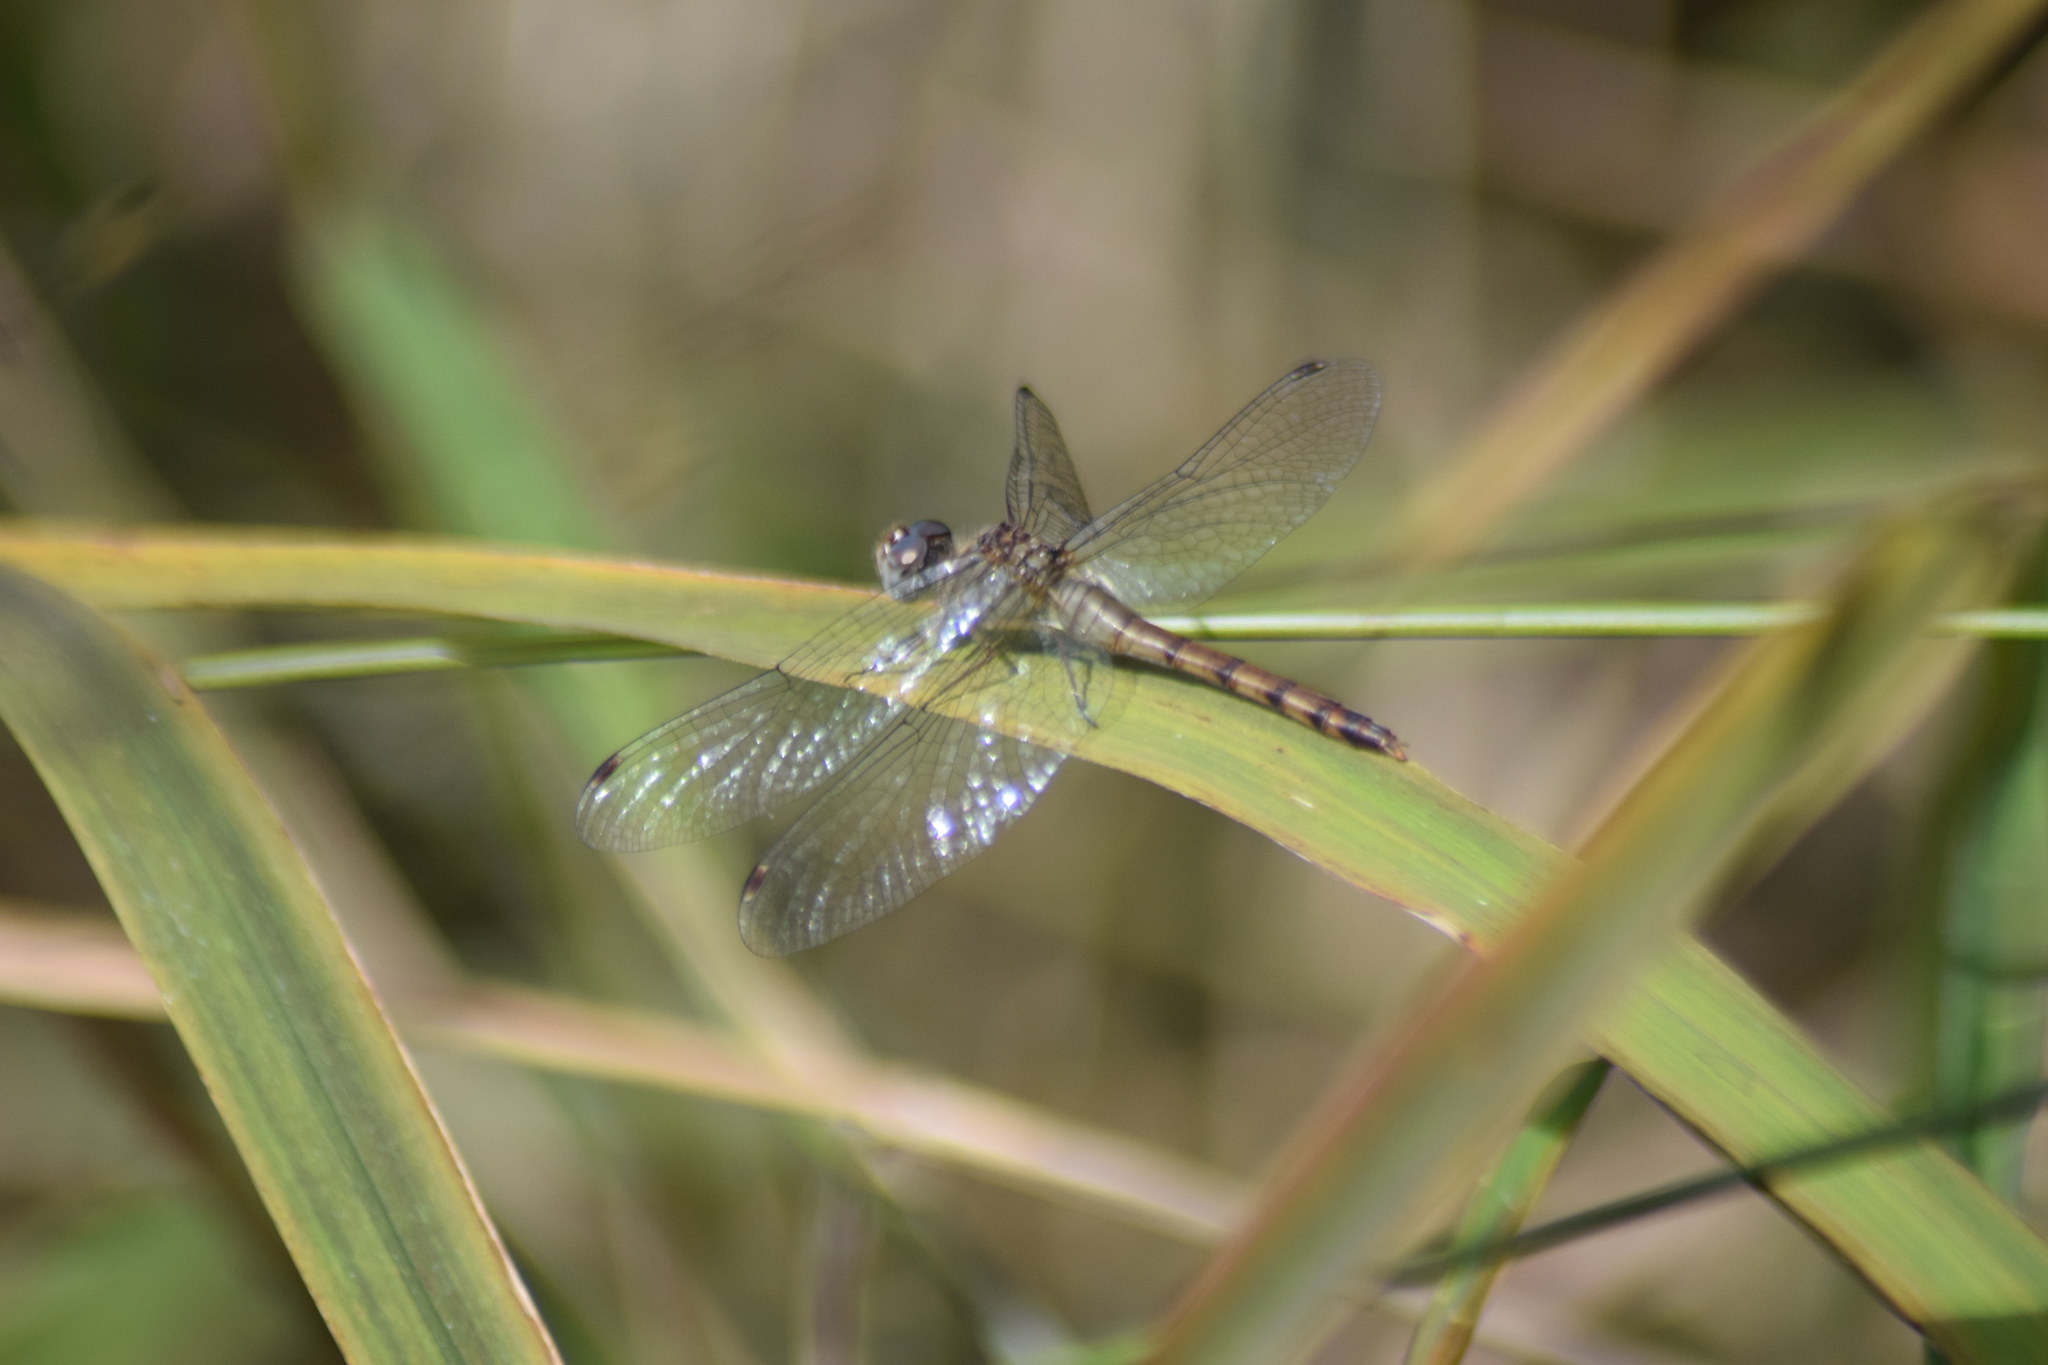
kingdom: Animalia
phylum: Arthropoda
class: Insecta
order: Odonata
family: Libellulidae
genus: Sympetrum
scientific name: Sympetrum ambiguum
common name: Blue-faced meadowhawk
